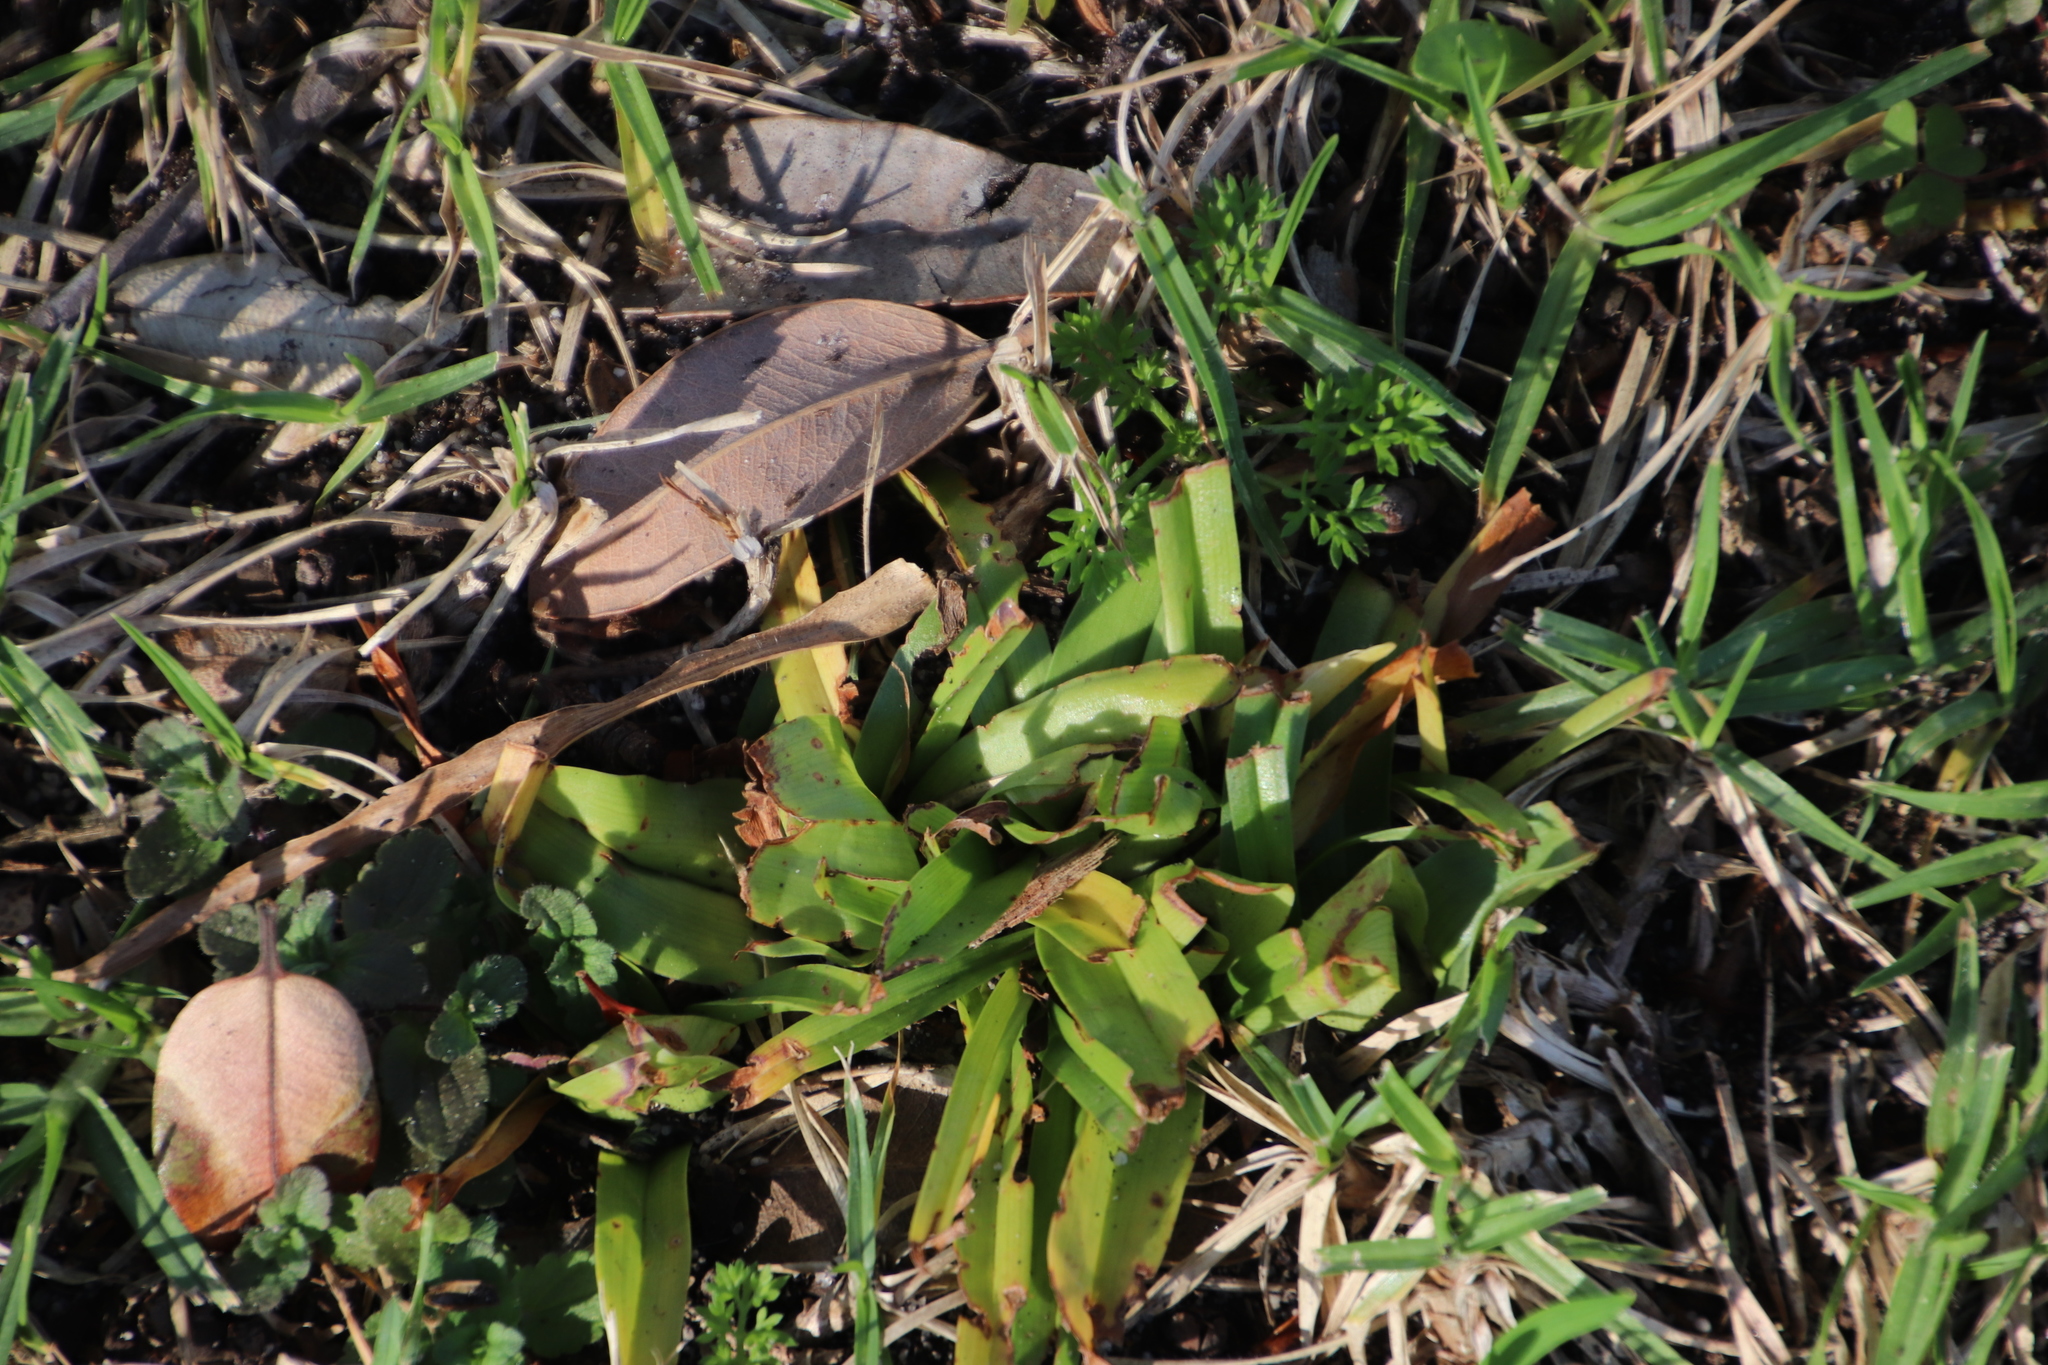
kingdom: Plantae
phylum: Tracheophyta
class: Liliopsida
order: Liliales
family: Colchicaceae
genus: Colchicum
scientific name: Colchicum eucomoides
